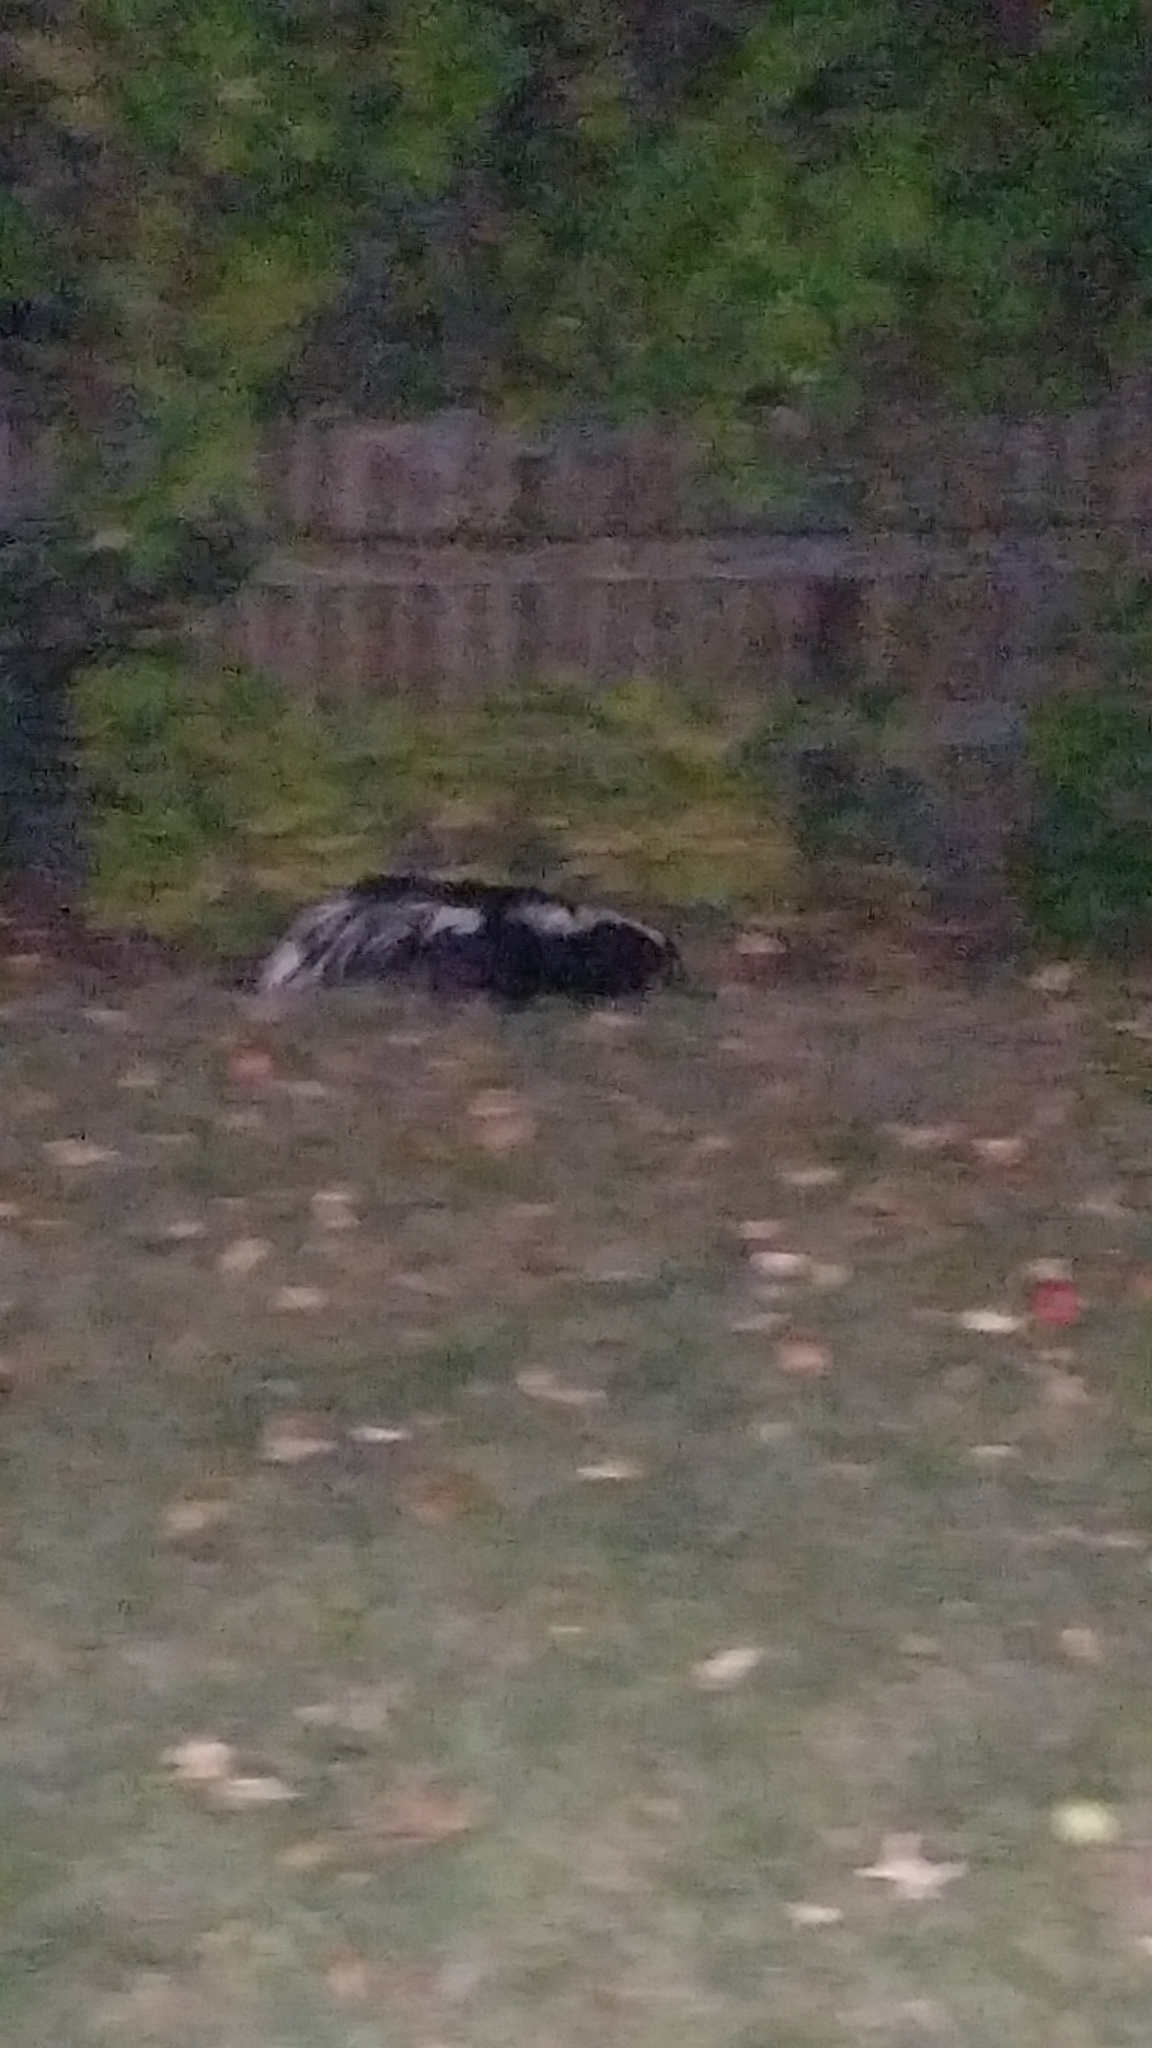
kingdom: Animalia
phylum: Chordata
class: Mammalia
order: Carnivora
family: Mephitidae
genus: Mephitis
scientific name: Mephitis mephitis
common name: Striped skunk
